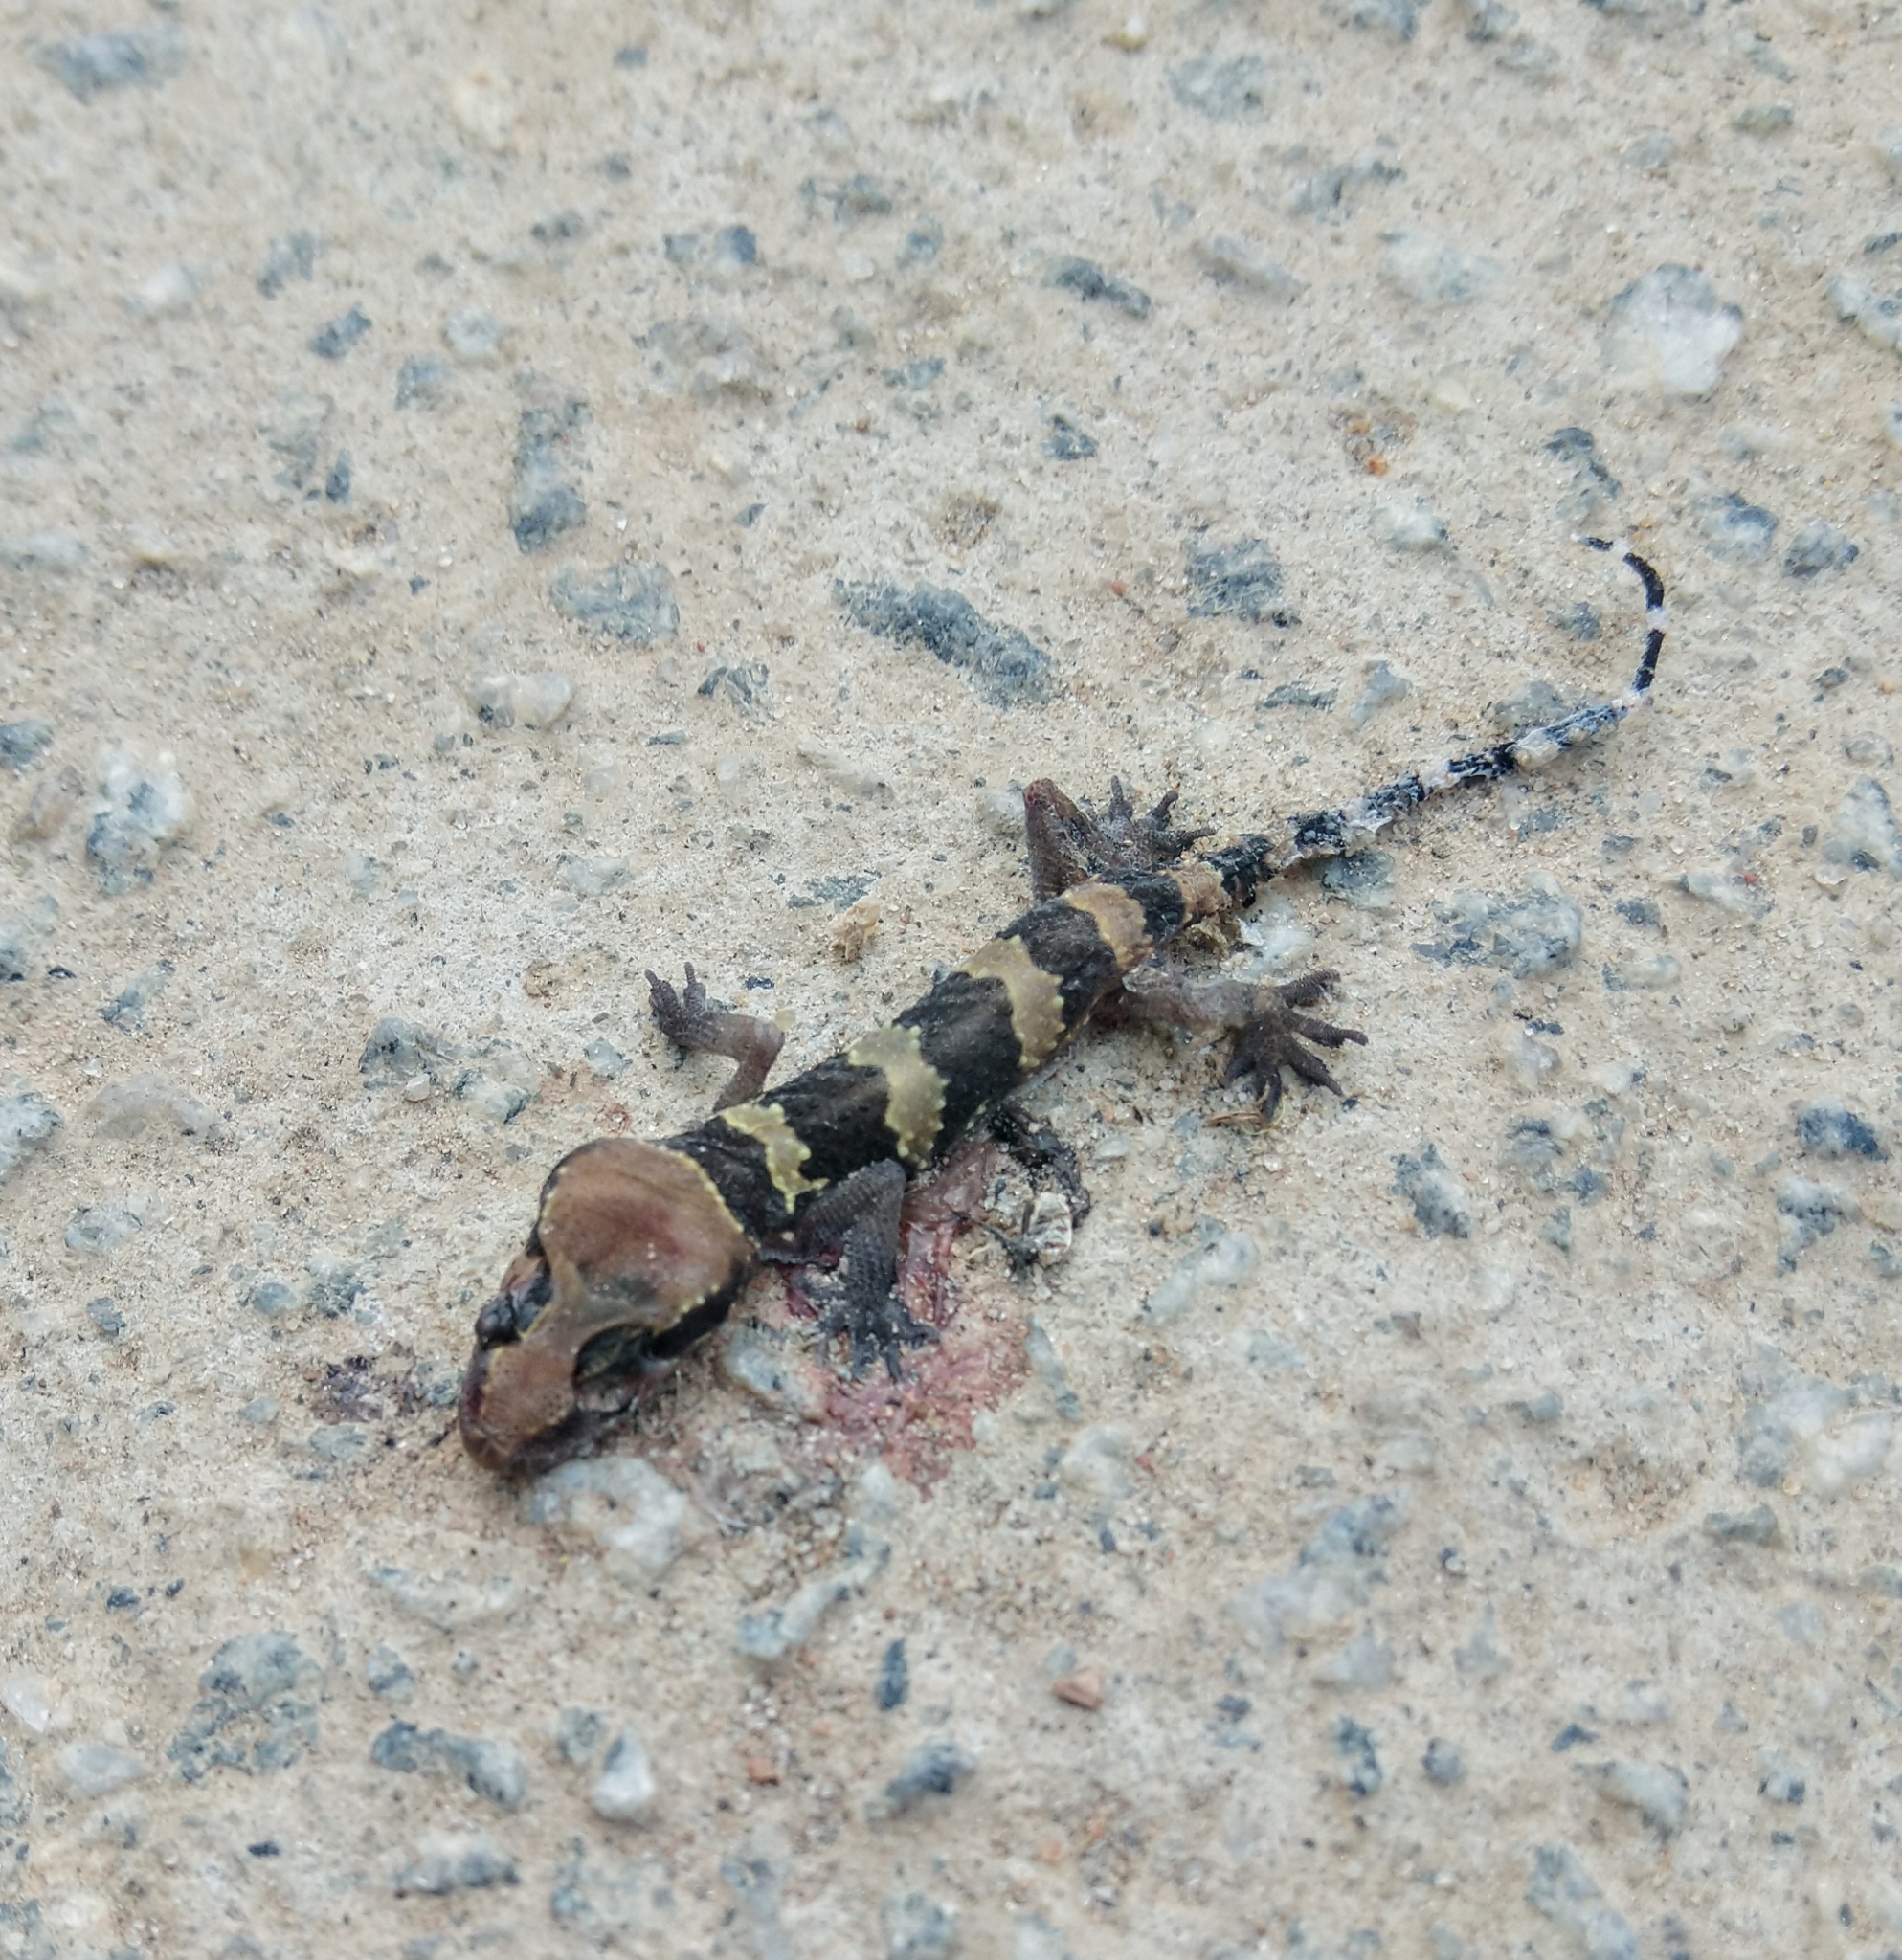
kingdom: Animalia
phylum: Chordata
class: Squamata
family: Gekkonidae
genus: Hemidactylus
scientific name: Hemidactylus triedrus
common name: Blotched house gecko
